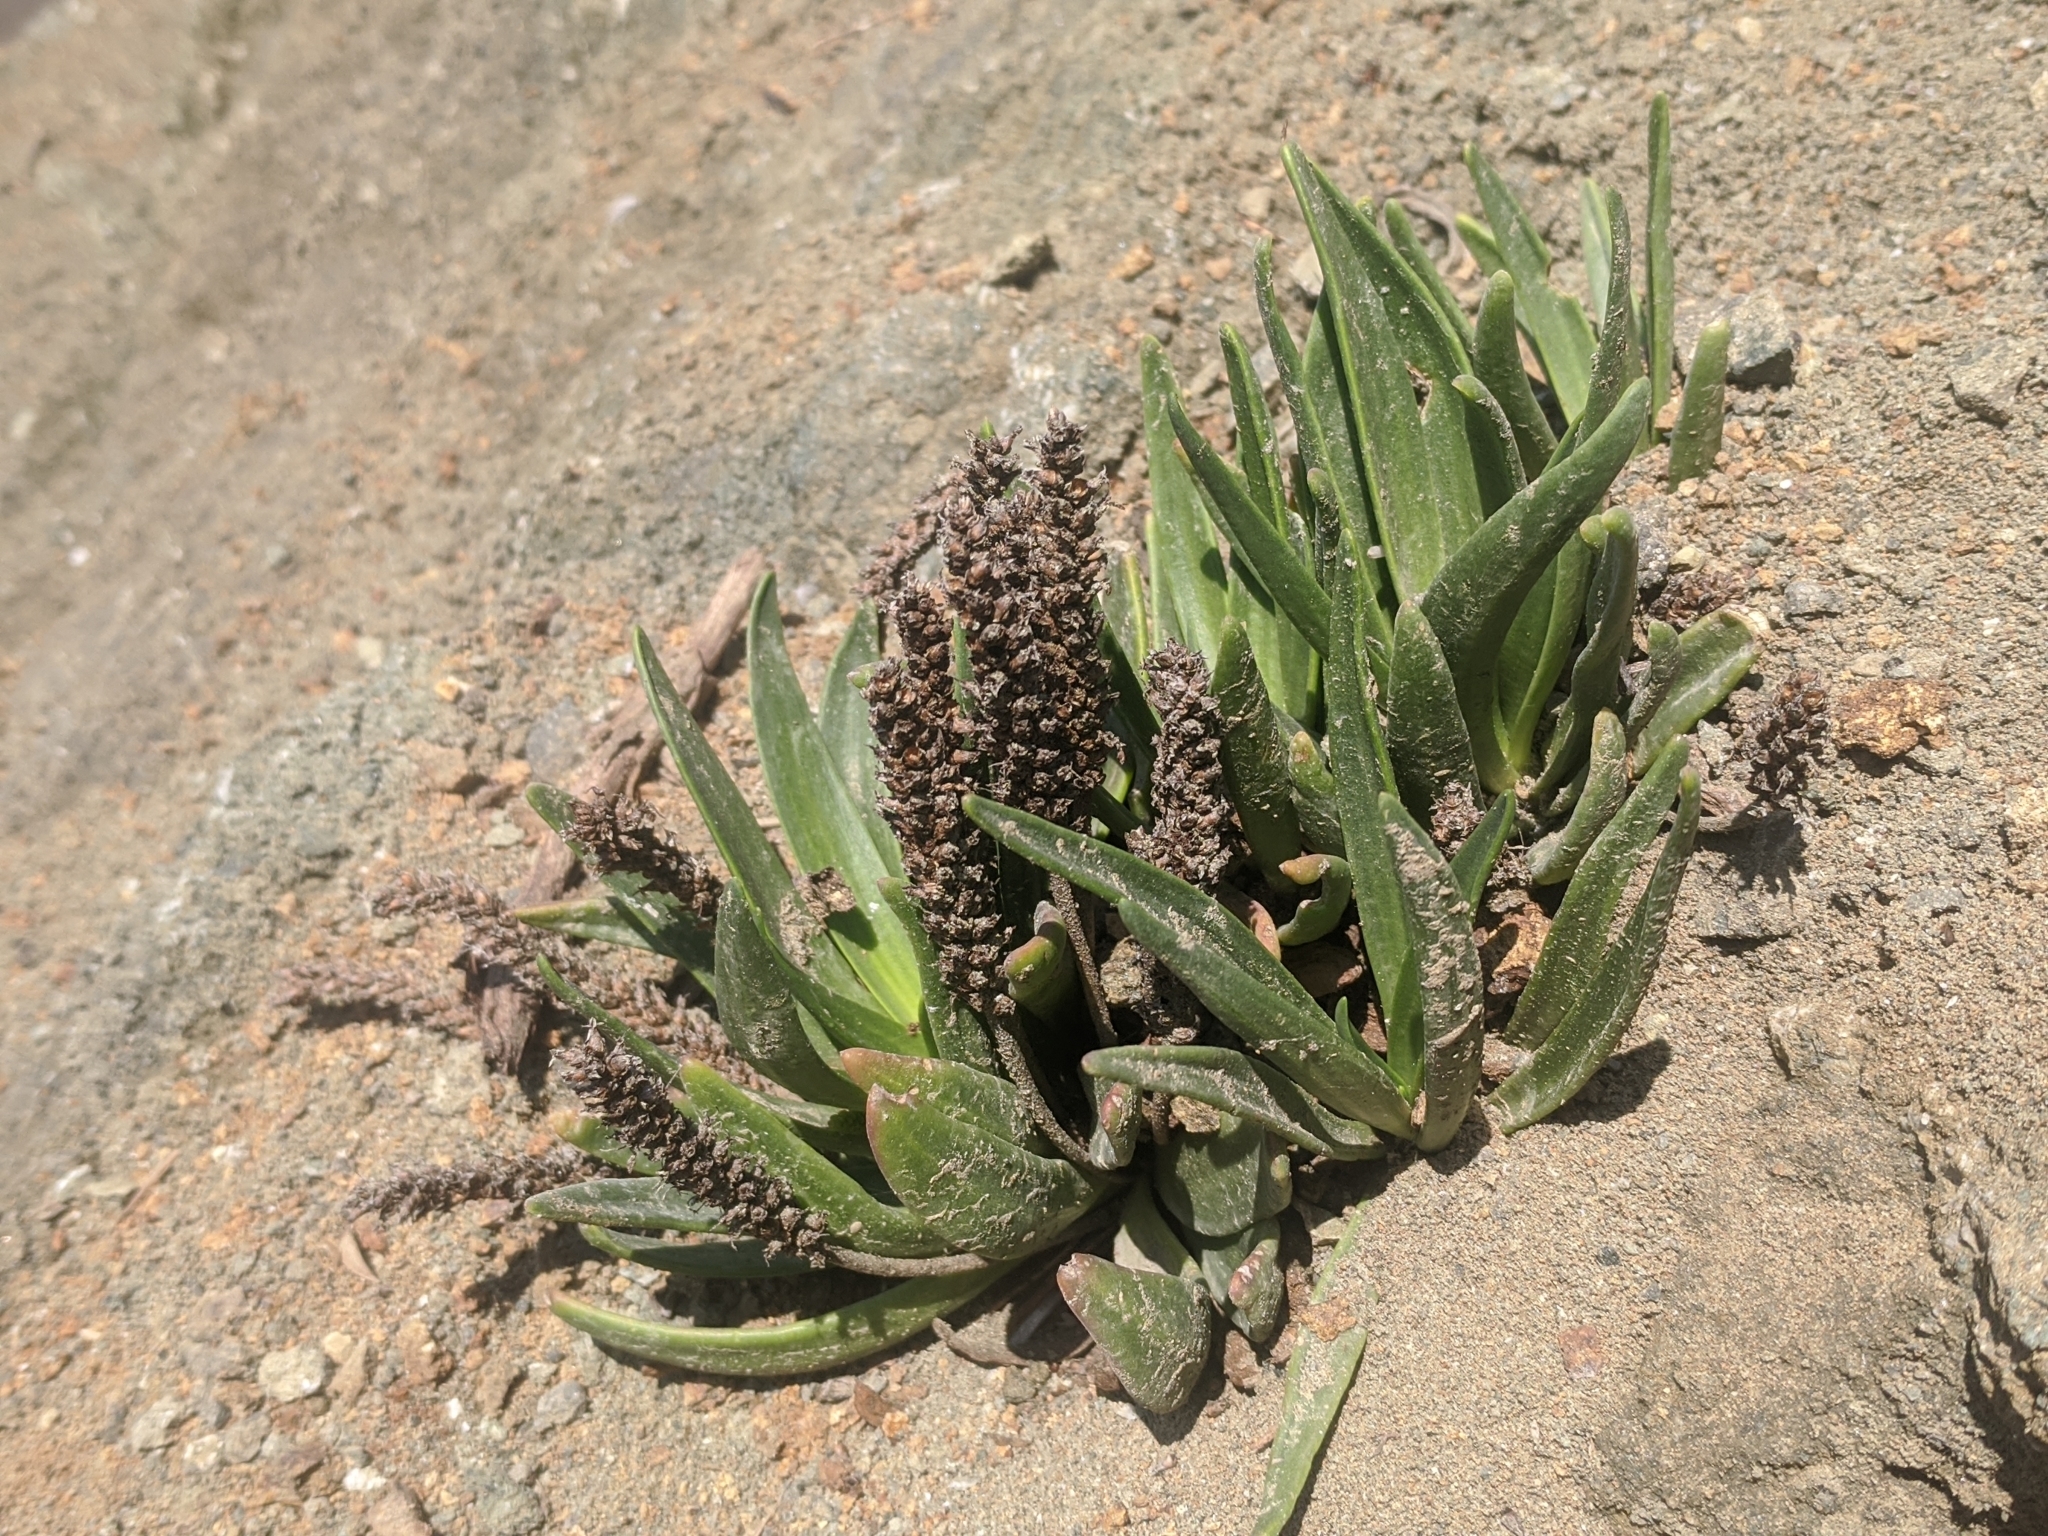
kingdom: Plantae
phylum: Tracheophyta
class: Magnoliopsida
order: Lamiales
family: Plantaginaceae
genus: Plantago
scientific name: Plantago maritima
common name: Sea plantain
